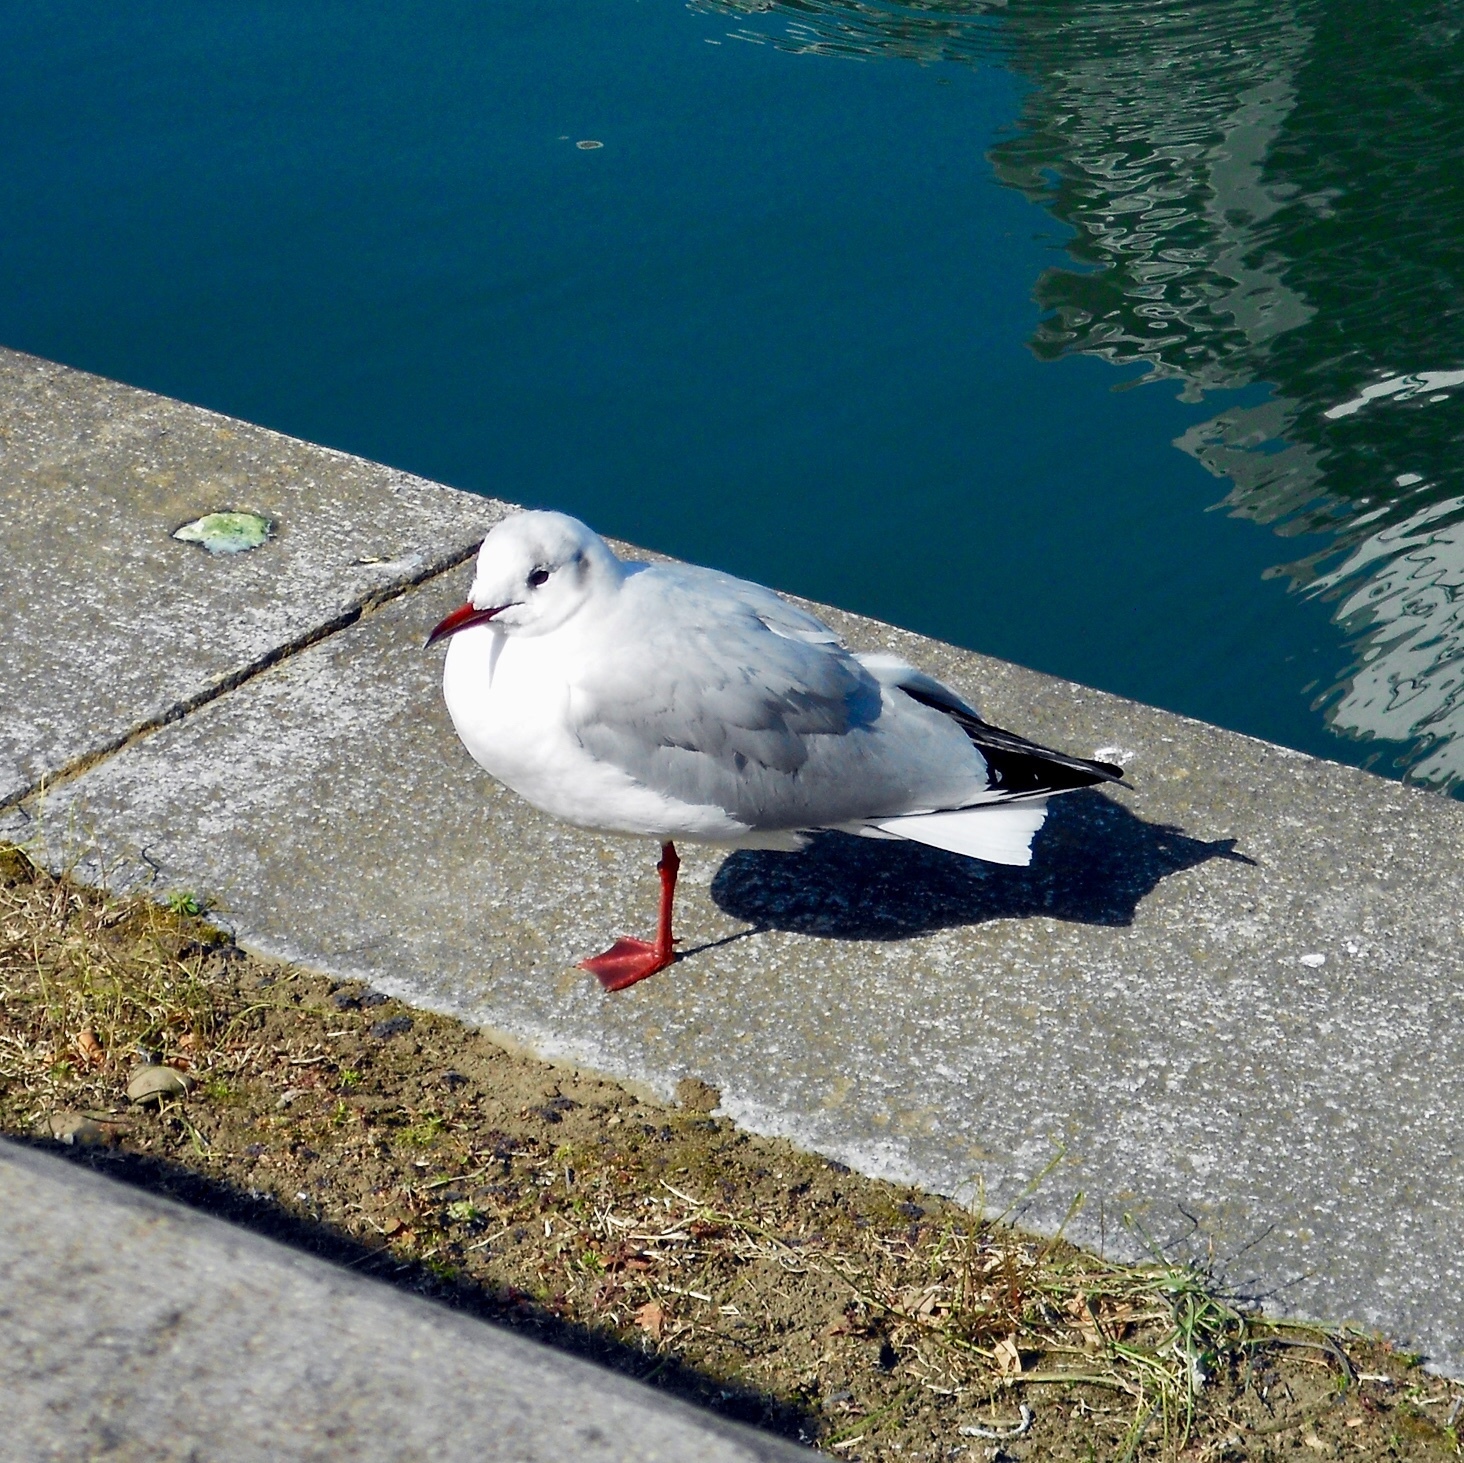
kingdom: Animalia
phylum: Chordata
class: Aves
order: Charadriiformes
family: Laridae
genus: Chroicocephalus
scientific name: Chroicocephalus ridibundus
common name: Black-headed gull
